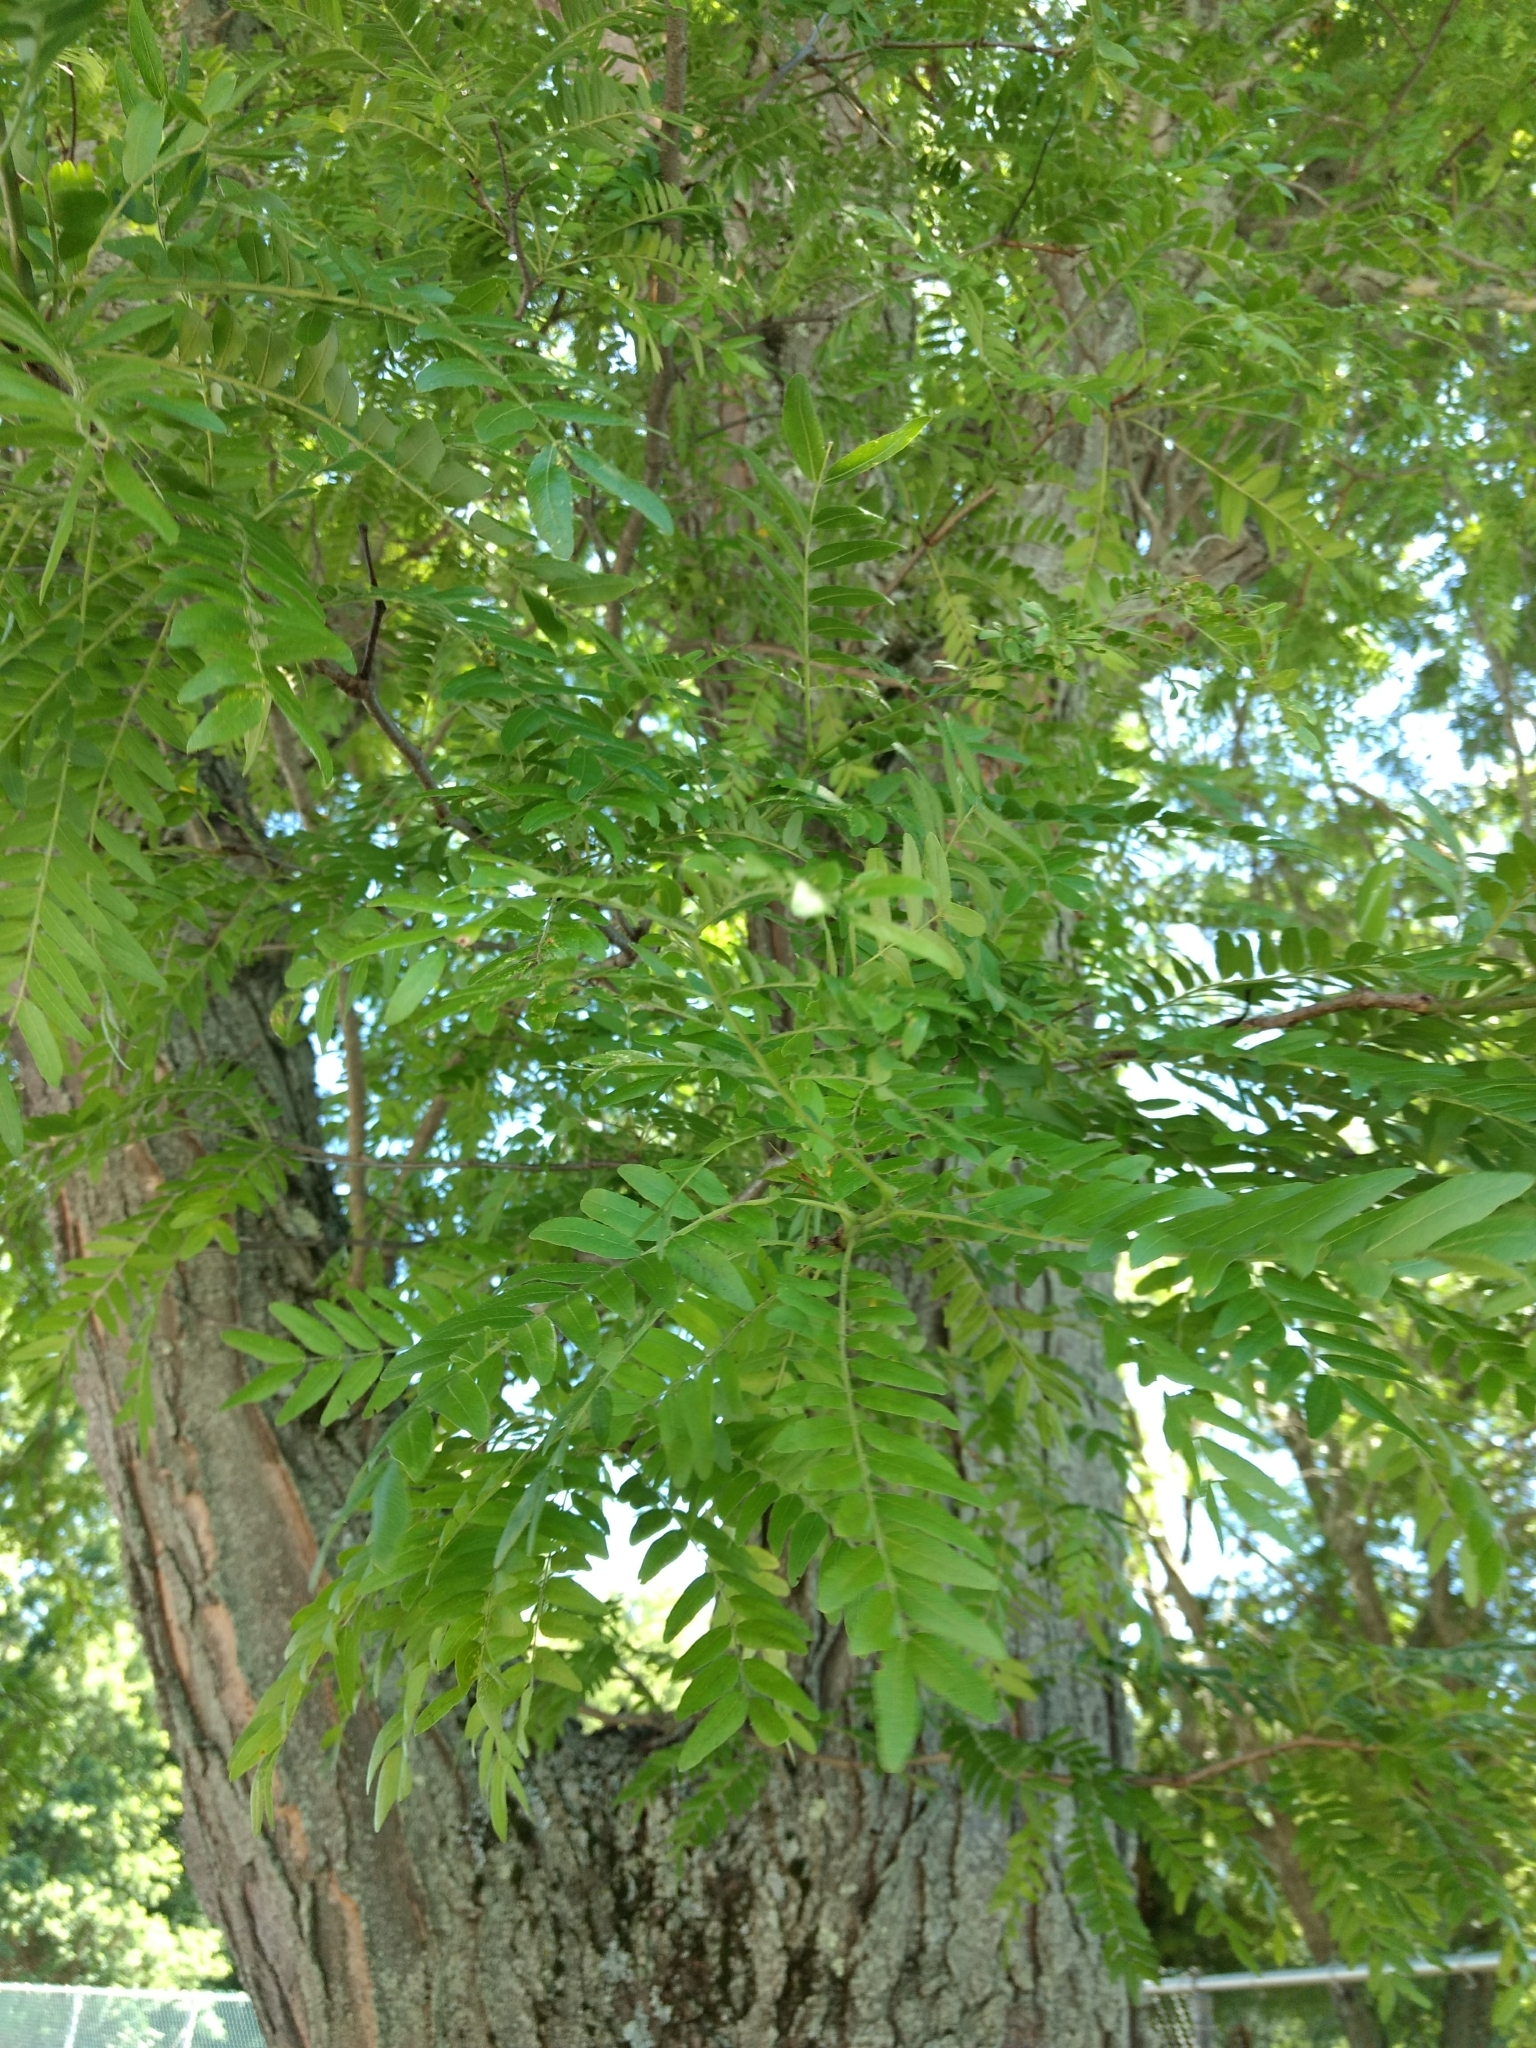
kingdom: Plantae
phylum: Tracheophyta
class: Magnoliopsida
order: Fabales
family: Fabaceae
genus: Gleditsia
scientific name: Gleditsia triacanthos
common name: Common honeylocust
